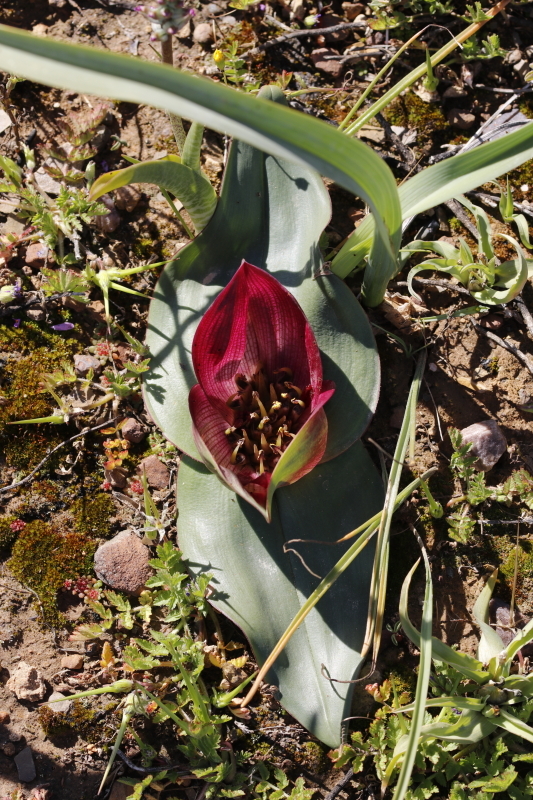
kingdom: Plantae
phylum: Tracheophyta
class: Liliopsida
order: Liliales
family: Colchicaceae
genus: Colchicum
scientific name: Colchicum burchellii
